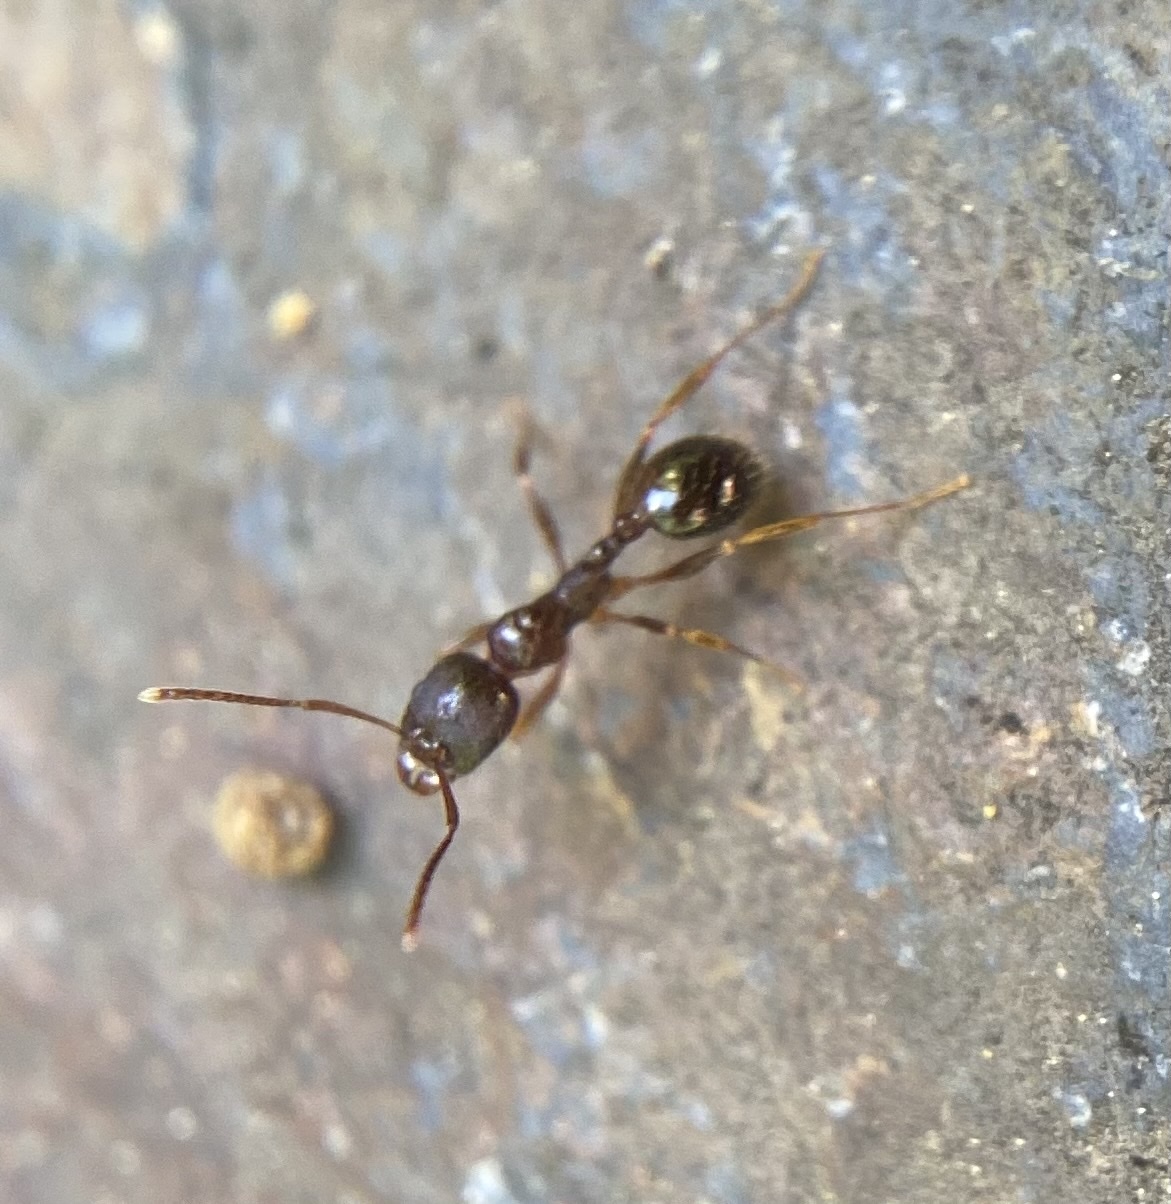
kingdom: Animalia
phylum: Arthropoda
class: Insecta
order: Hymenoptera
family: Formicidae
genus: Aphaenogaster
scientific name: Aphaenogaster occidentalis
